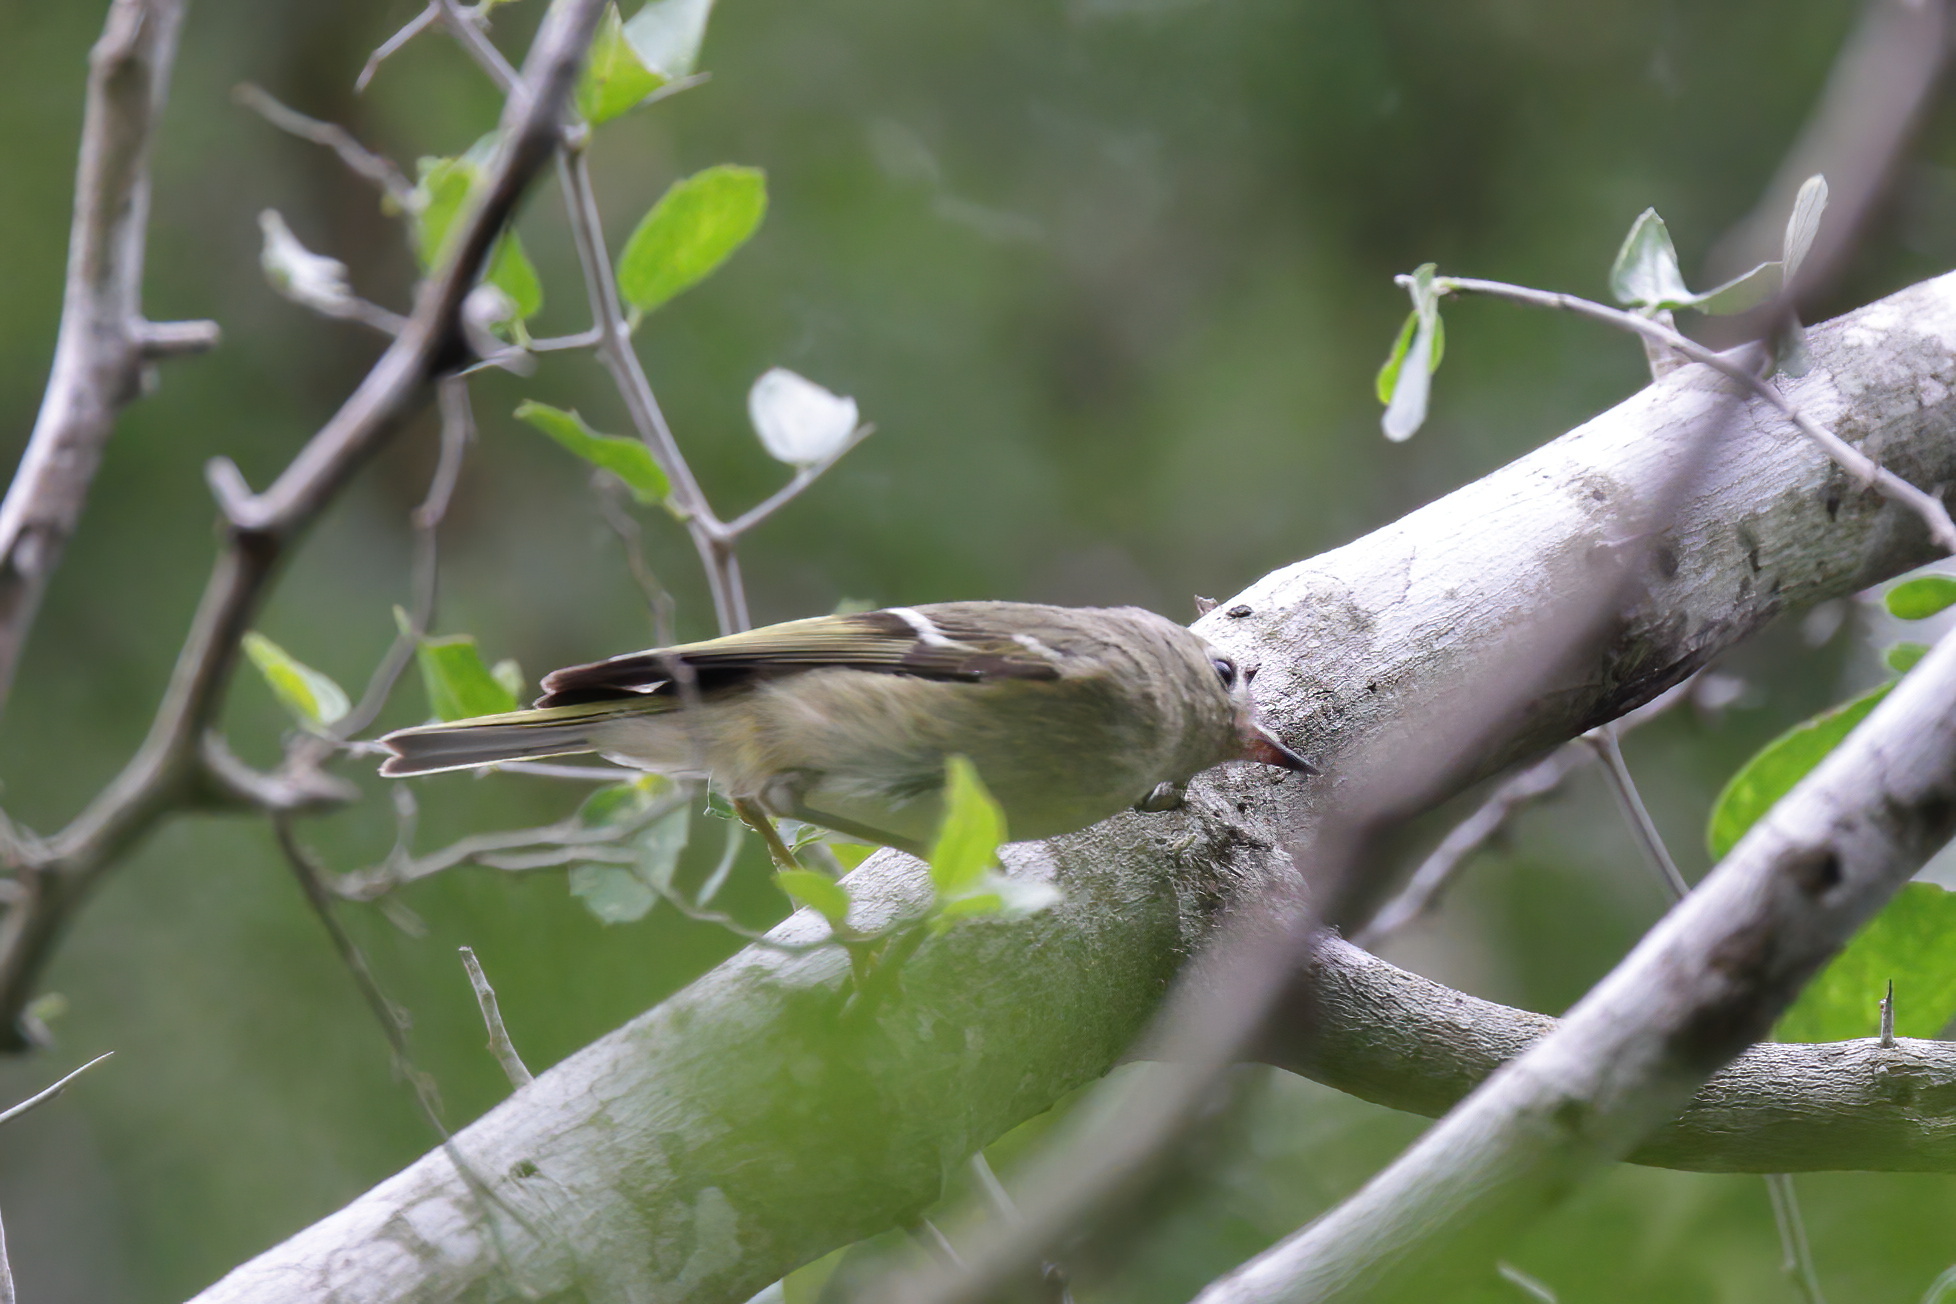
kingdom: Animalia
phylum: Chordata
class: Aves
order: Passeriformes
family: Regulidae
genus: Regulus
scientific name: Regulus calendula
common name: Ruby-crowned kinglet
